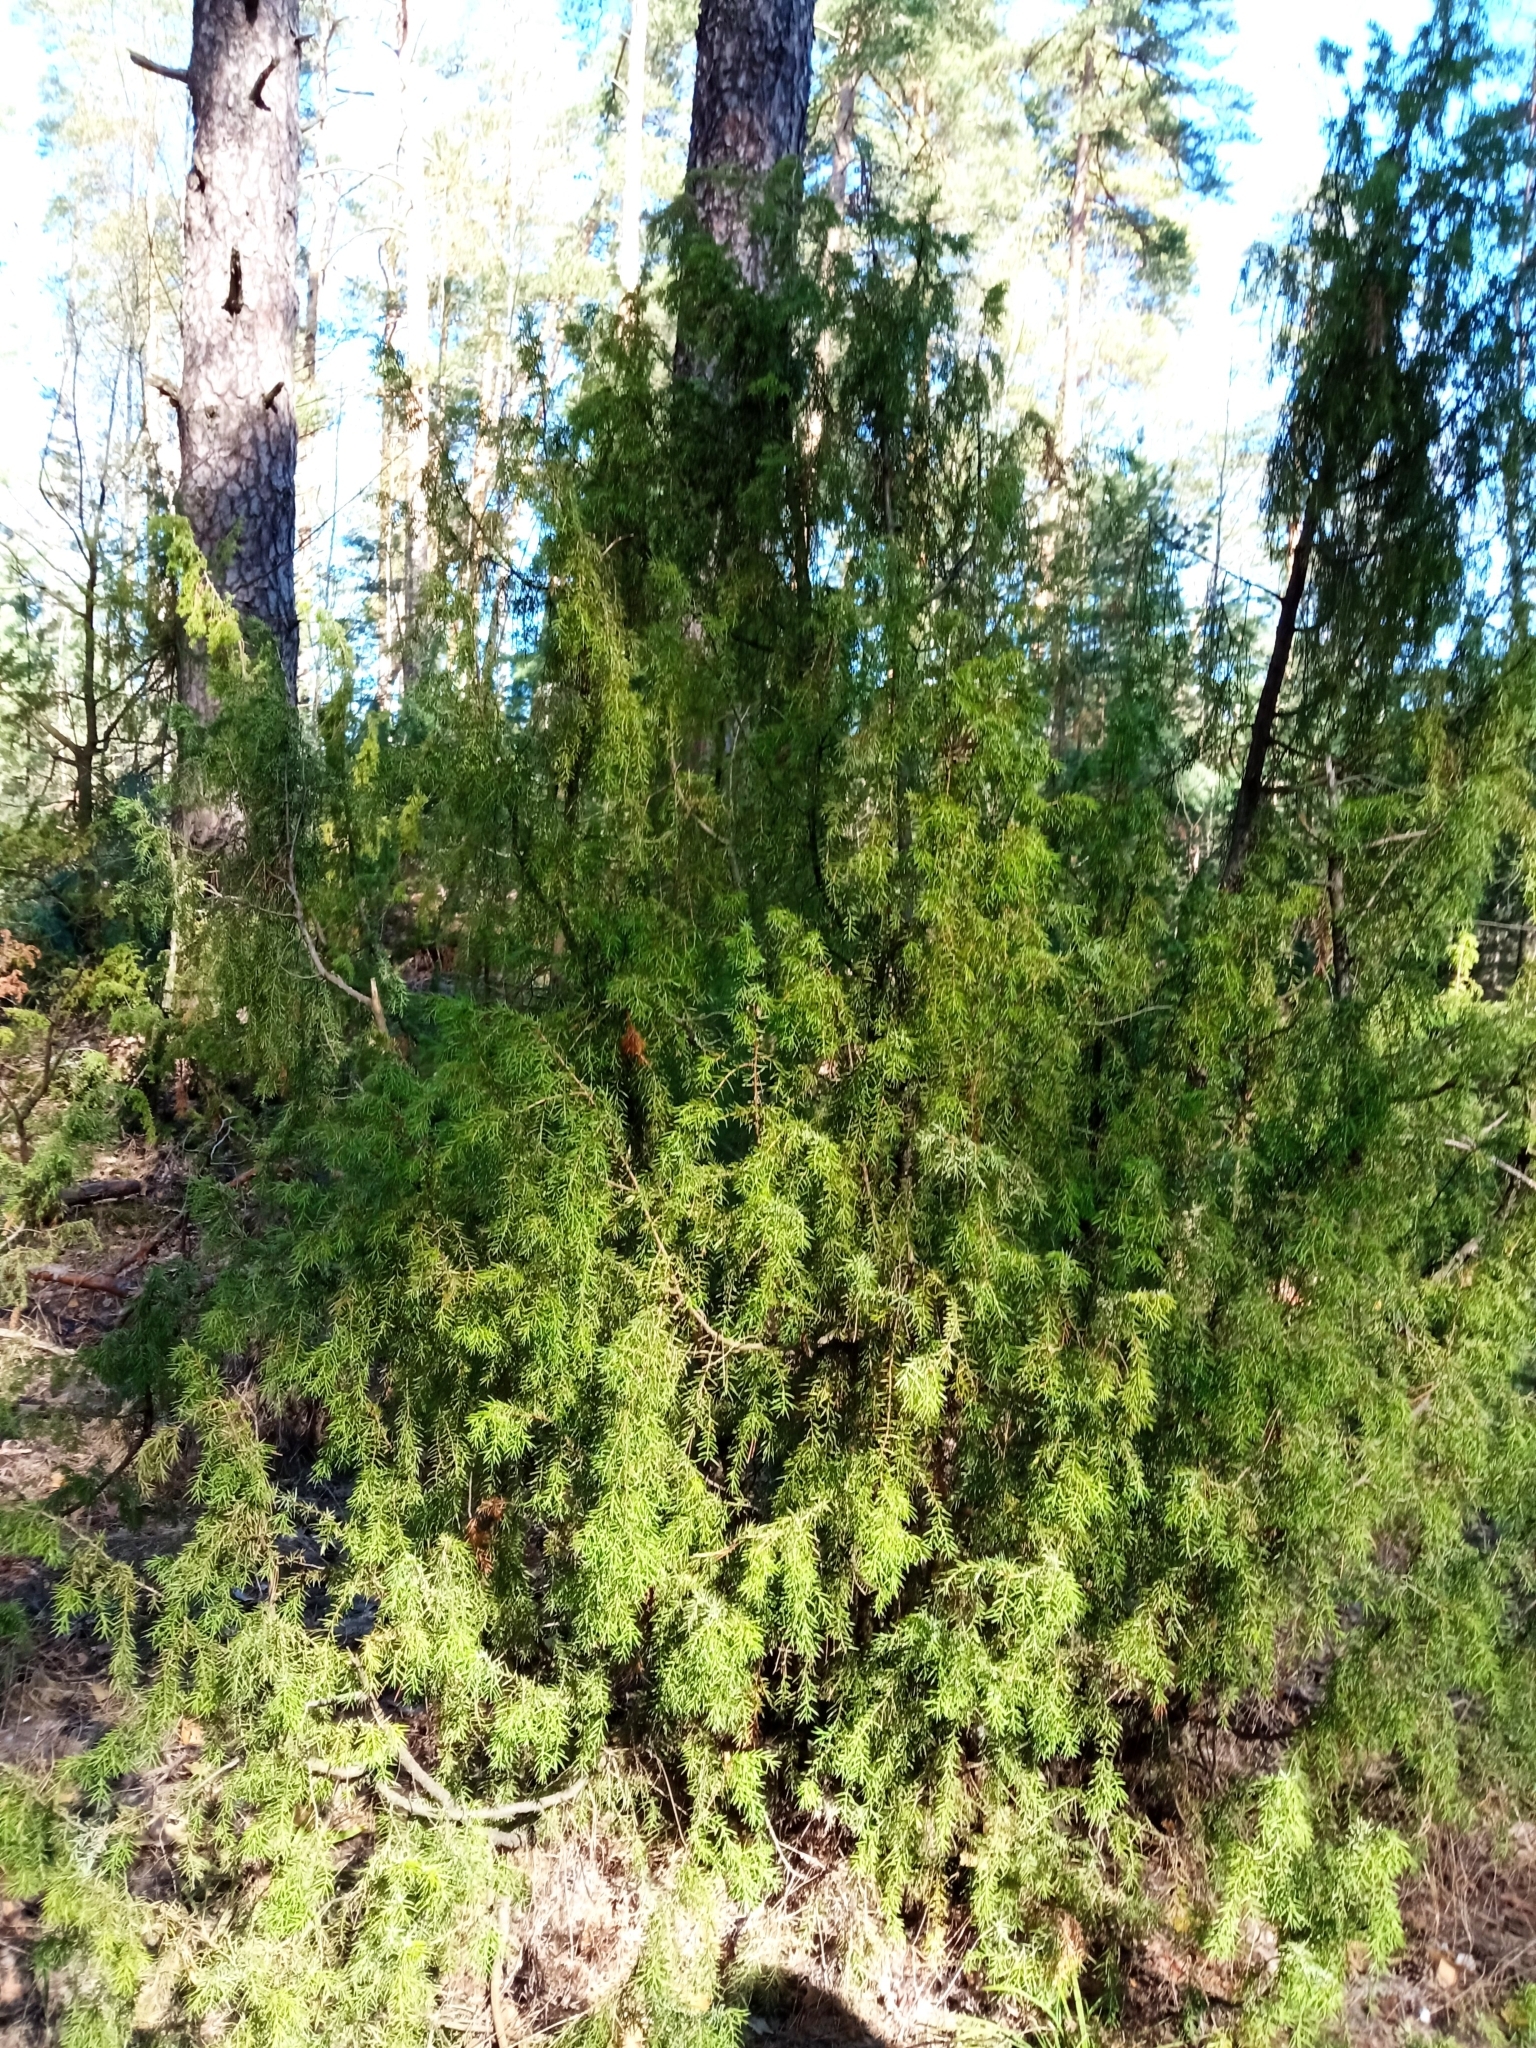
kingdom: Plantae
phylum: Tracheophyta
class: Pinopsida
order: Pinales
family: Cupressaceae
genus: Juniperus
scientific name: Juniperus communis
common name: Common juniper
